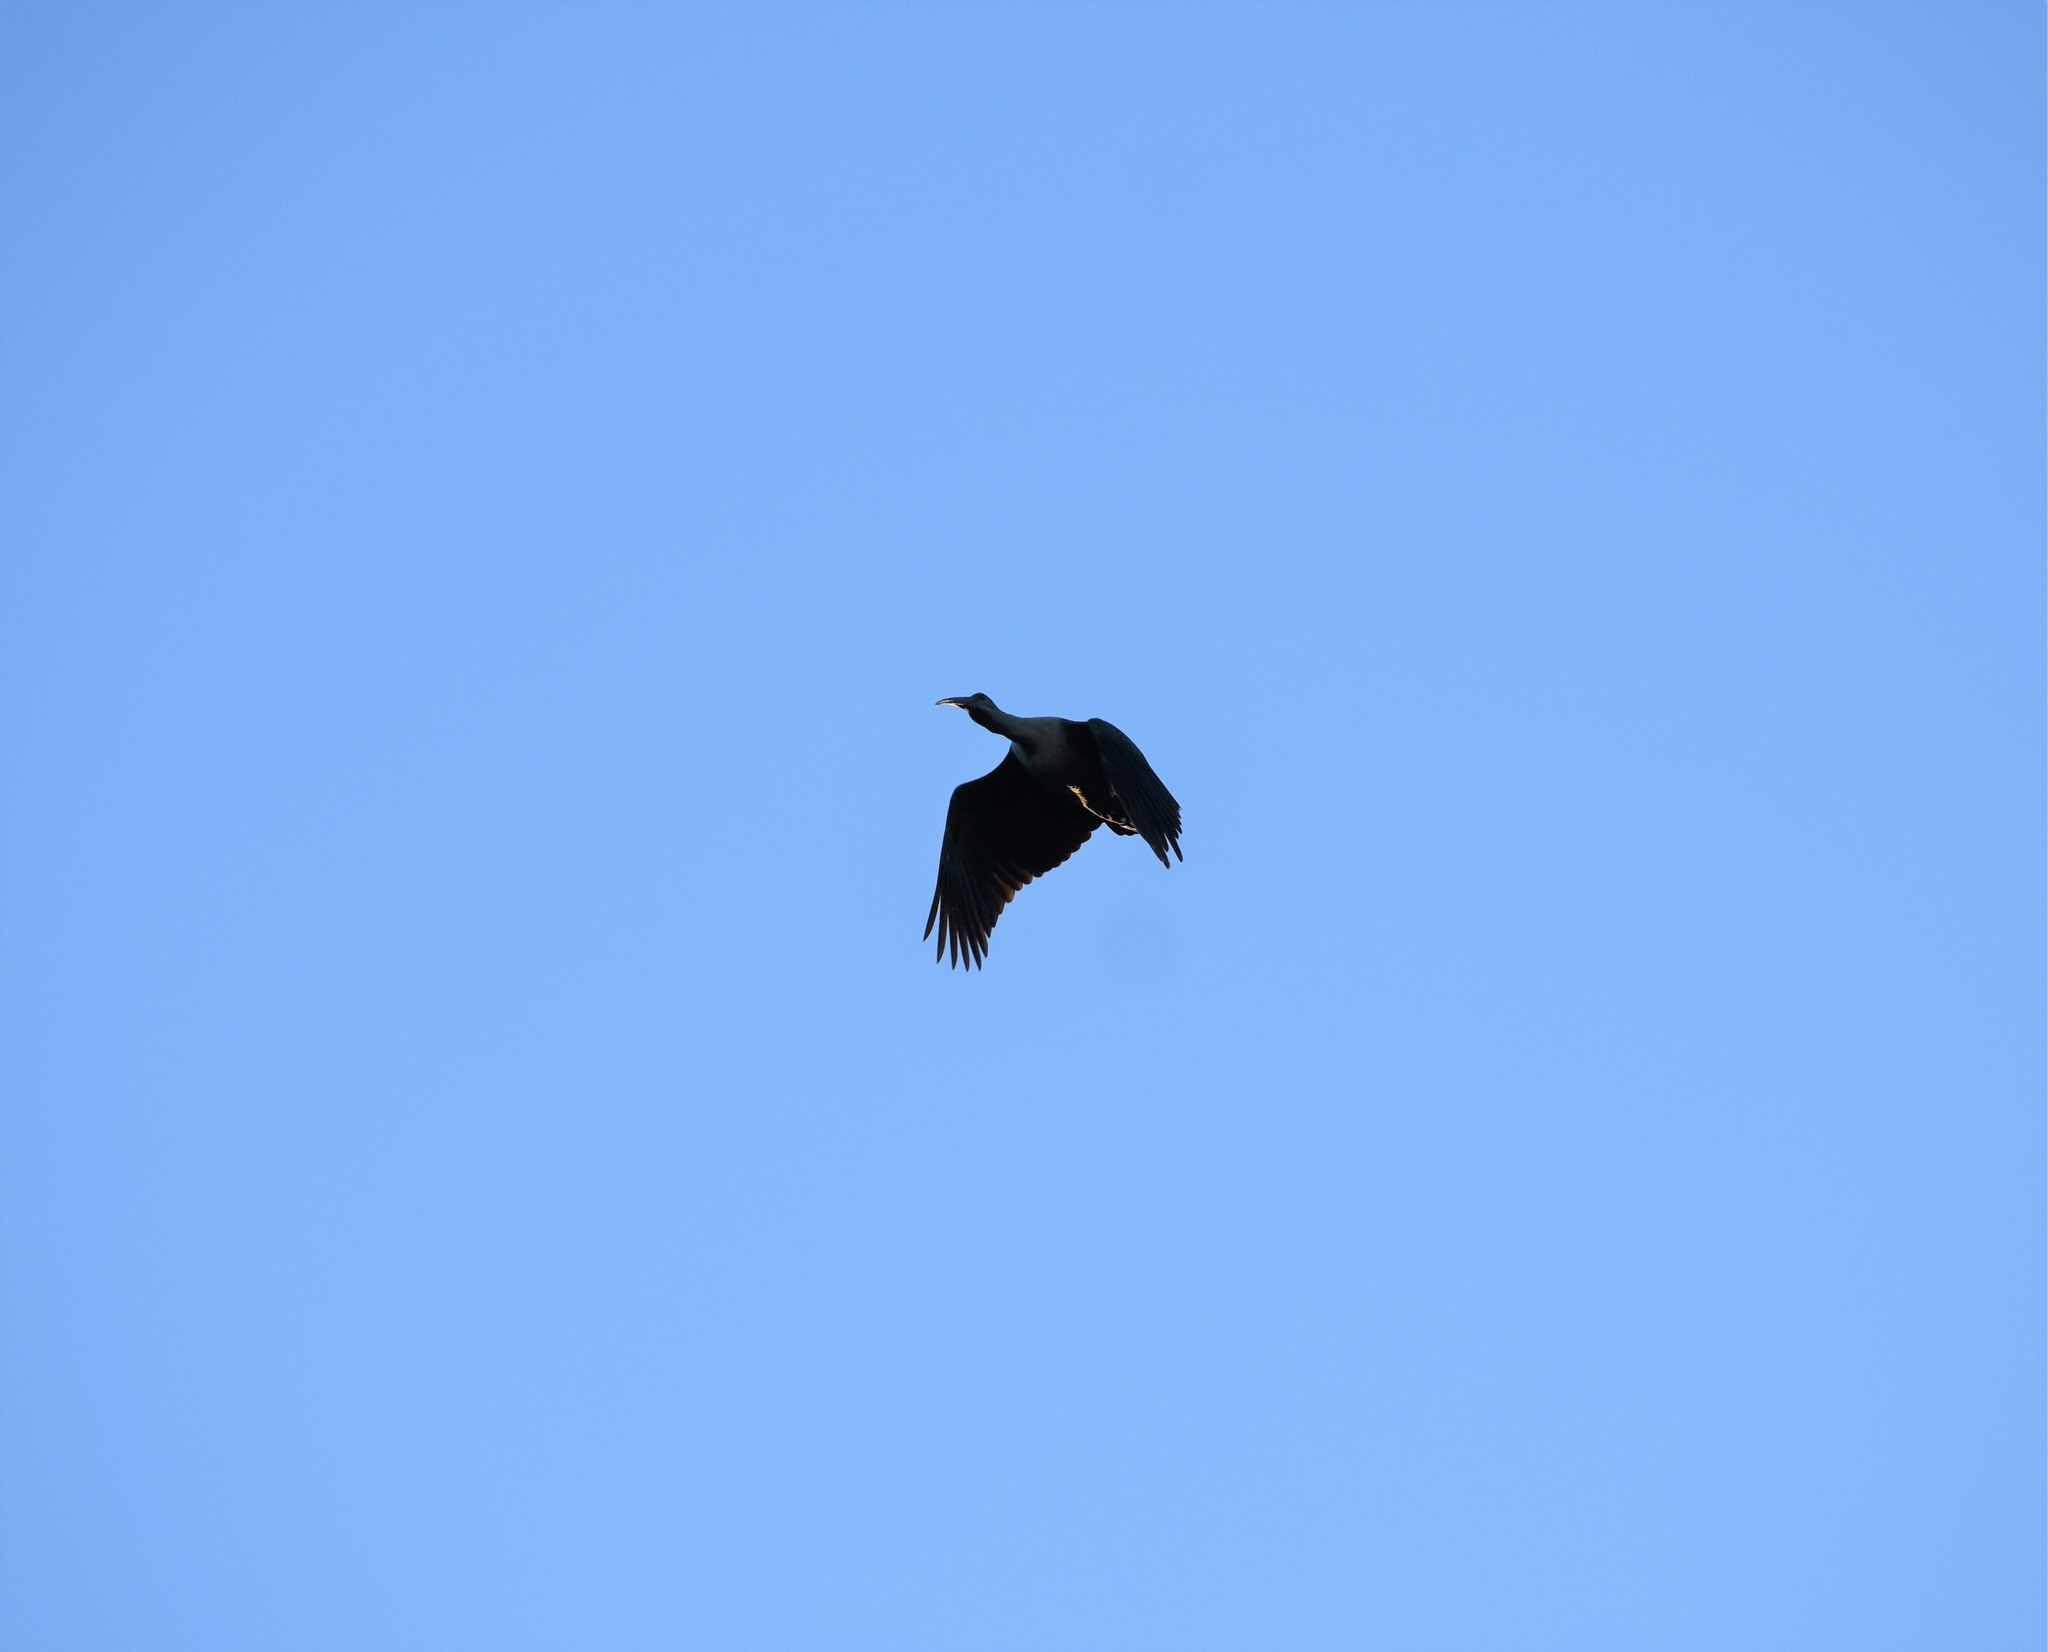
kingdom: Animalia
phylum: Chordata
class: Aves
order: Pelecaniformes
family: Threskiornithidae
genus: Bostrychia
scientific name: Bostrychia hagedash
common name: Hadada ibis
